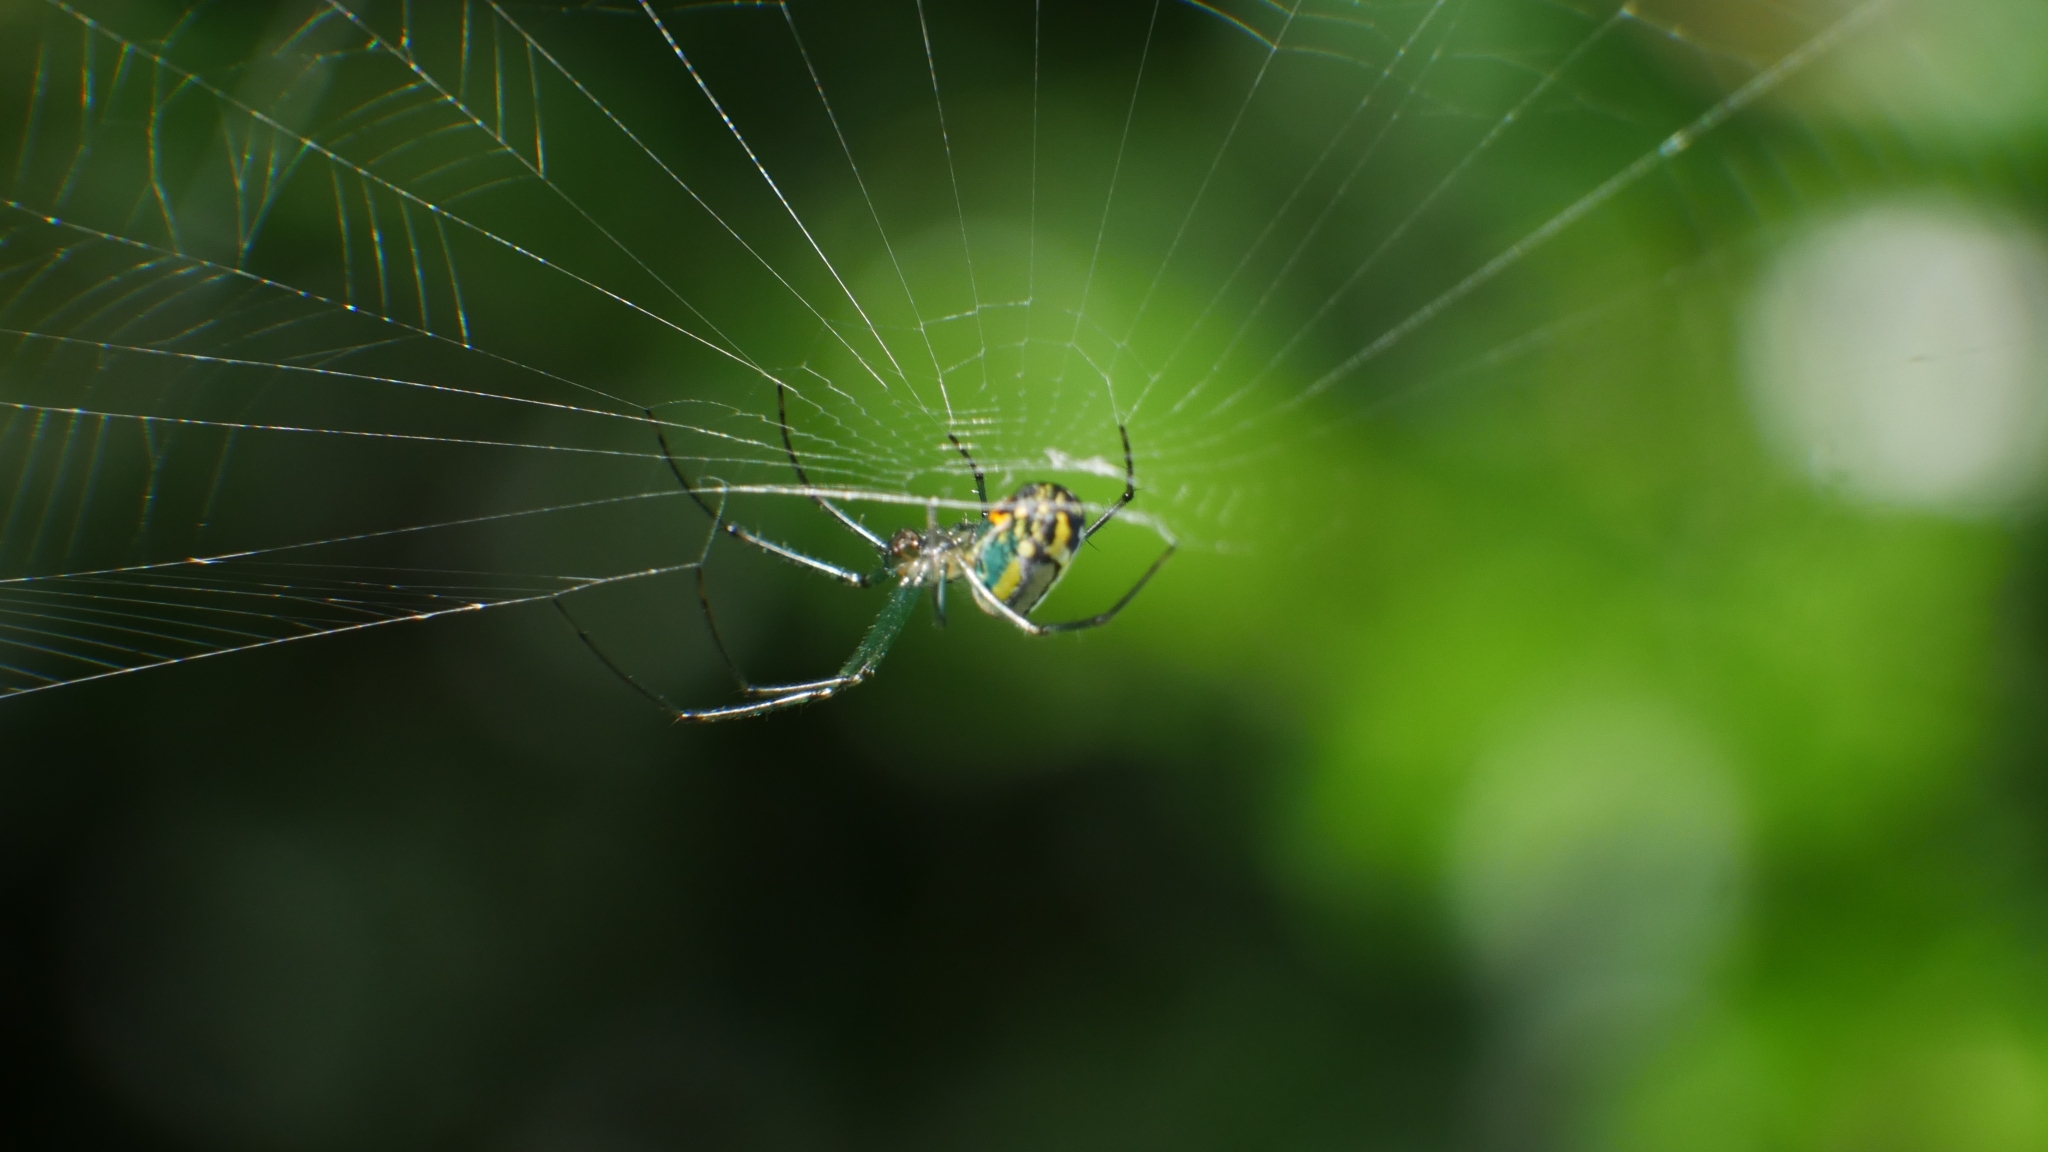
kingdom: Animalia
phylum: Arthropoda
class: Arachnida
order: Araneae
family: Tetragnathidae
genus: Leucauge
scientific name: Leucauge venusta
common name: Longjawed orb weavers
